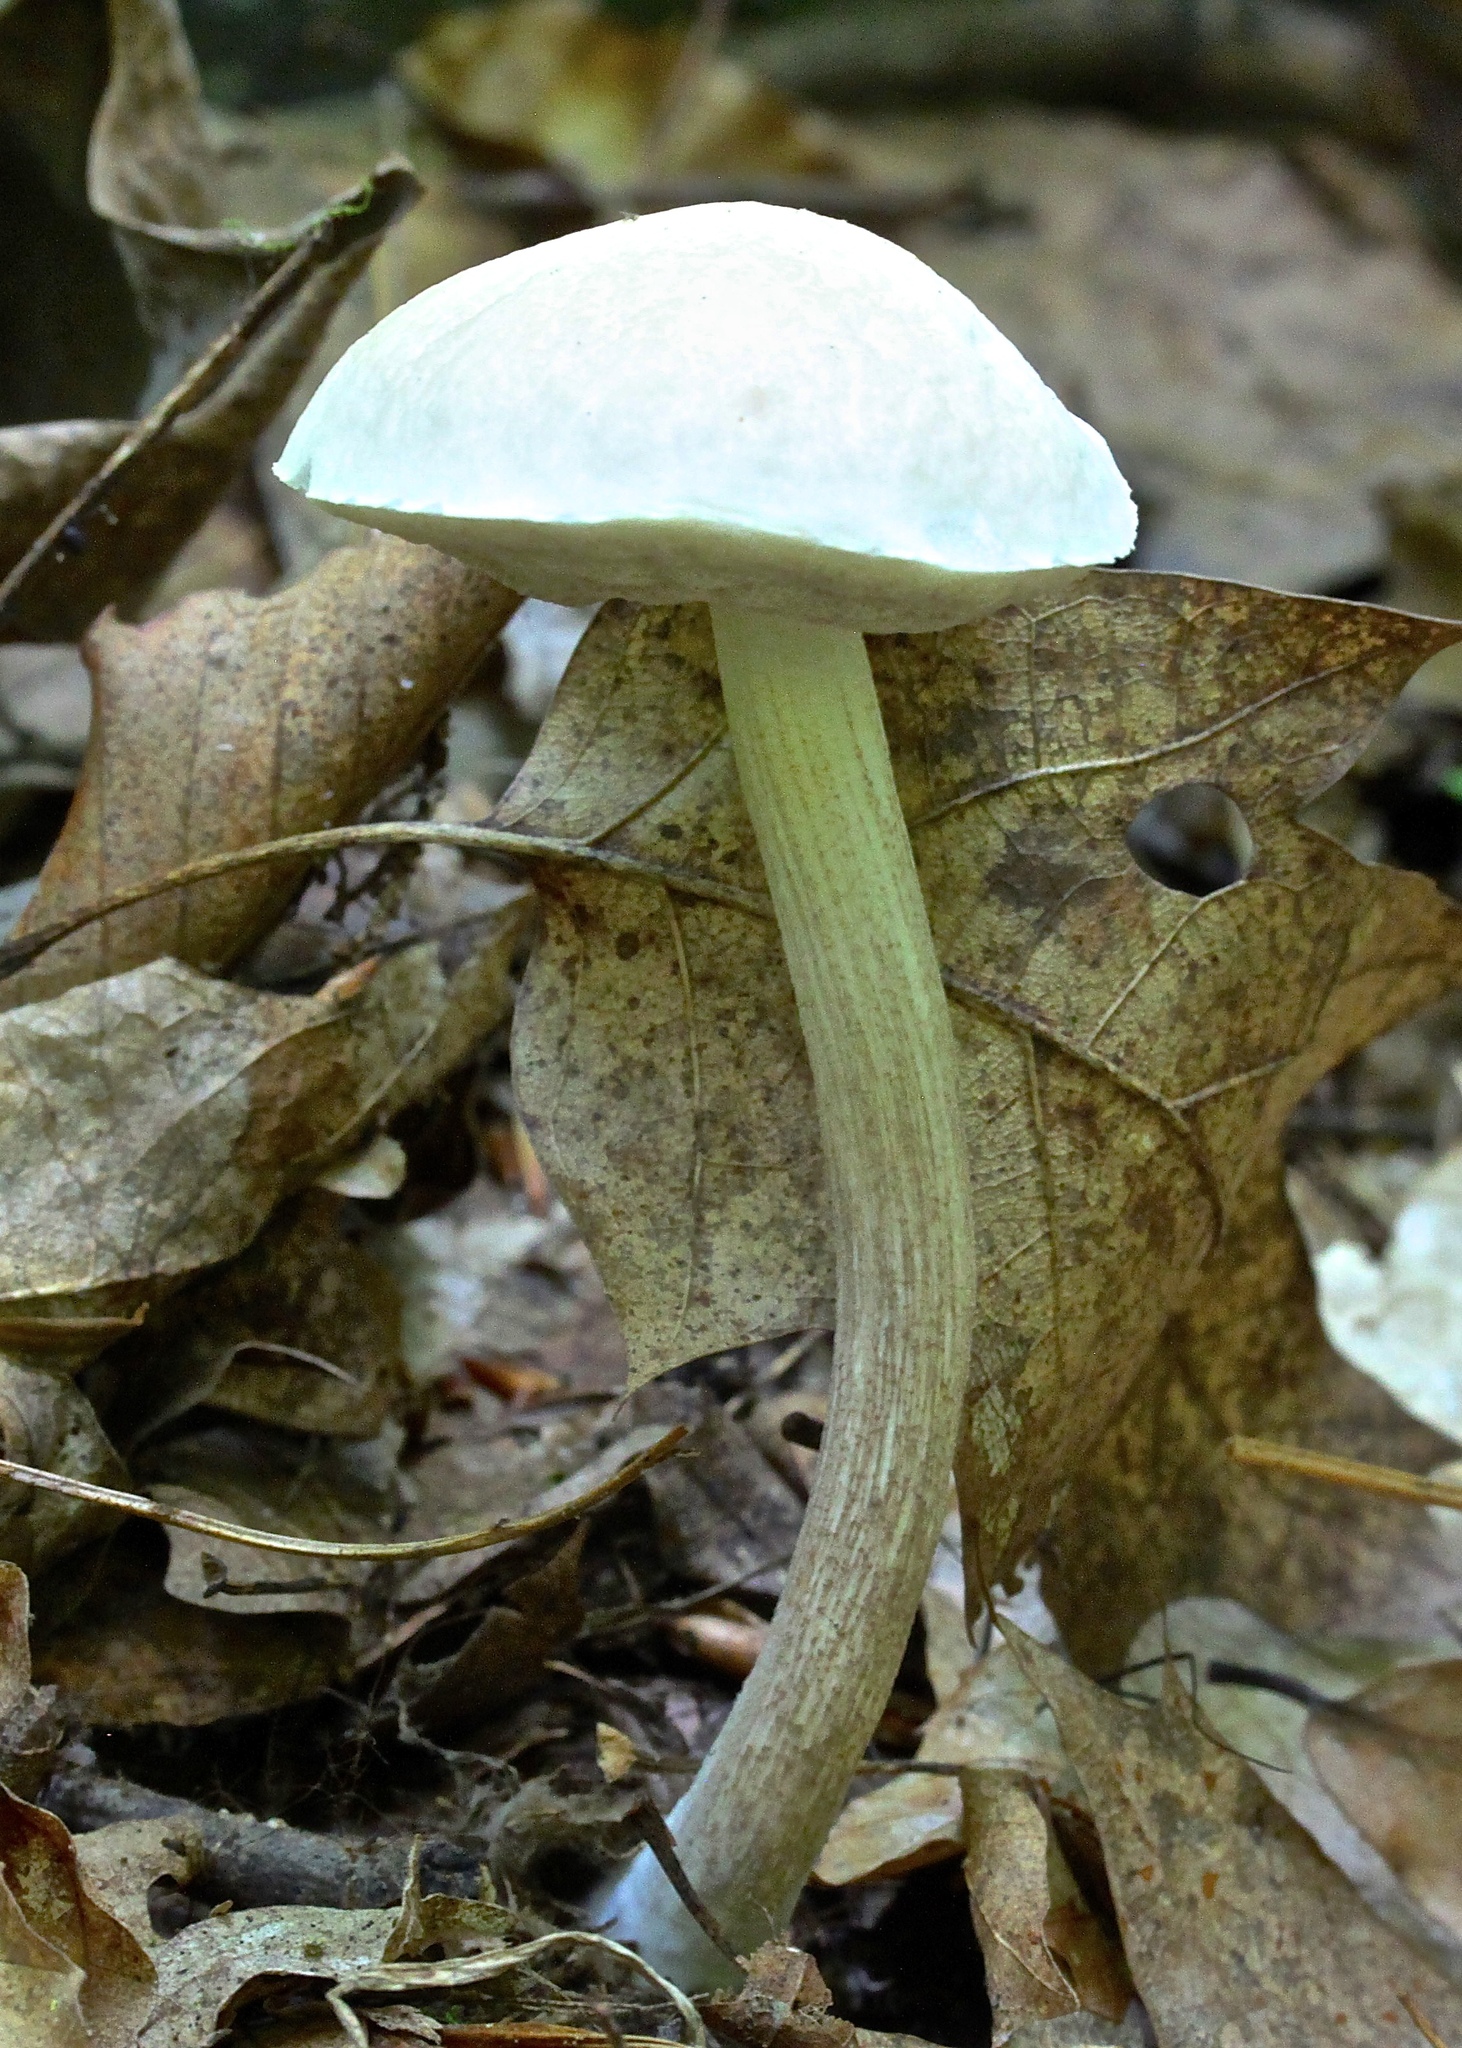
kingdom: Fungi
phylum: Basidiomycota
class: Agaricomycetes
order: Boletales
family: Boletaceae
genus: Leccinellum
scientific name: Leccinellum albellum
